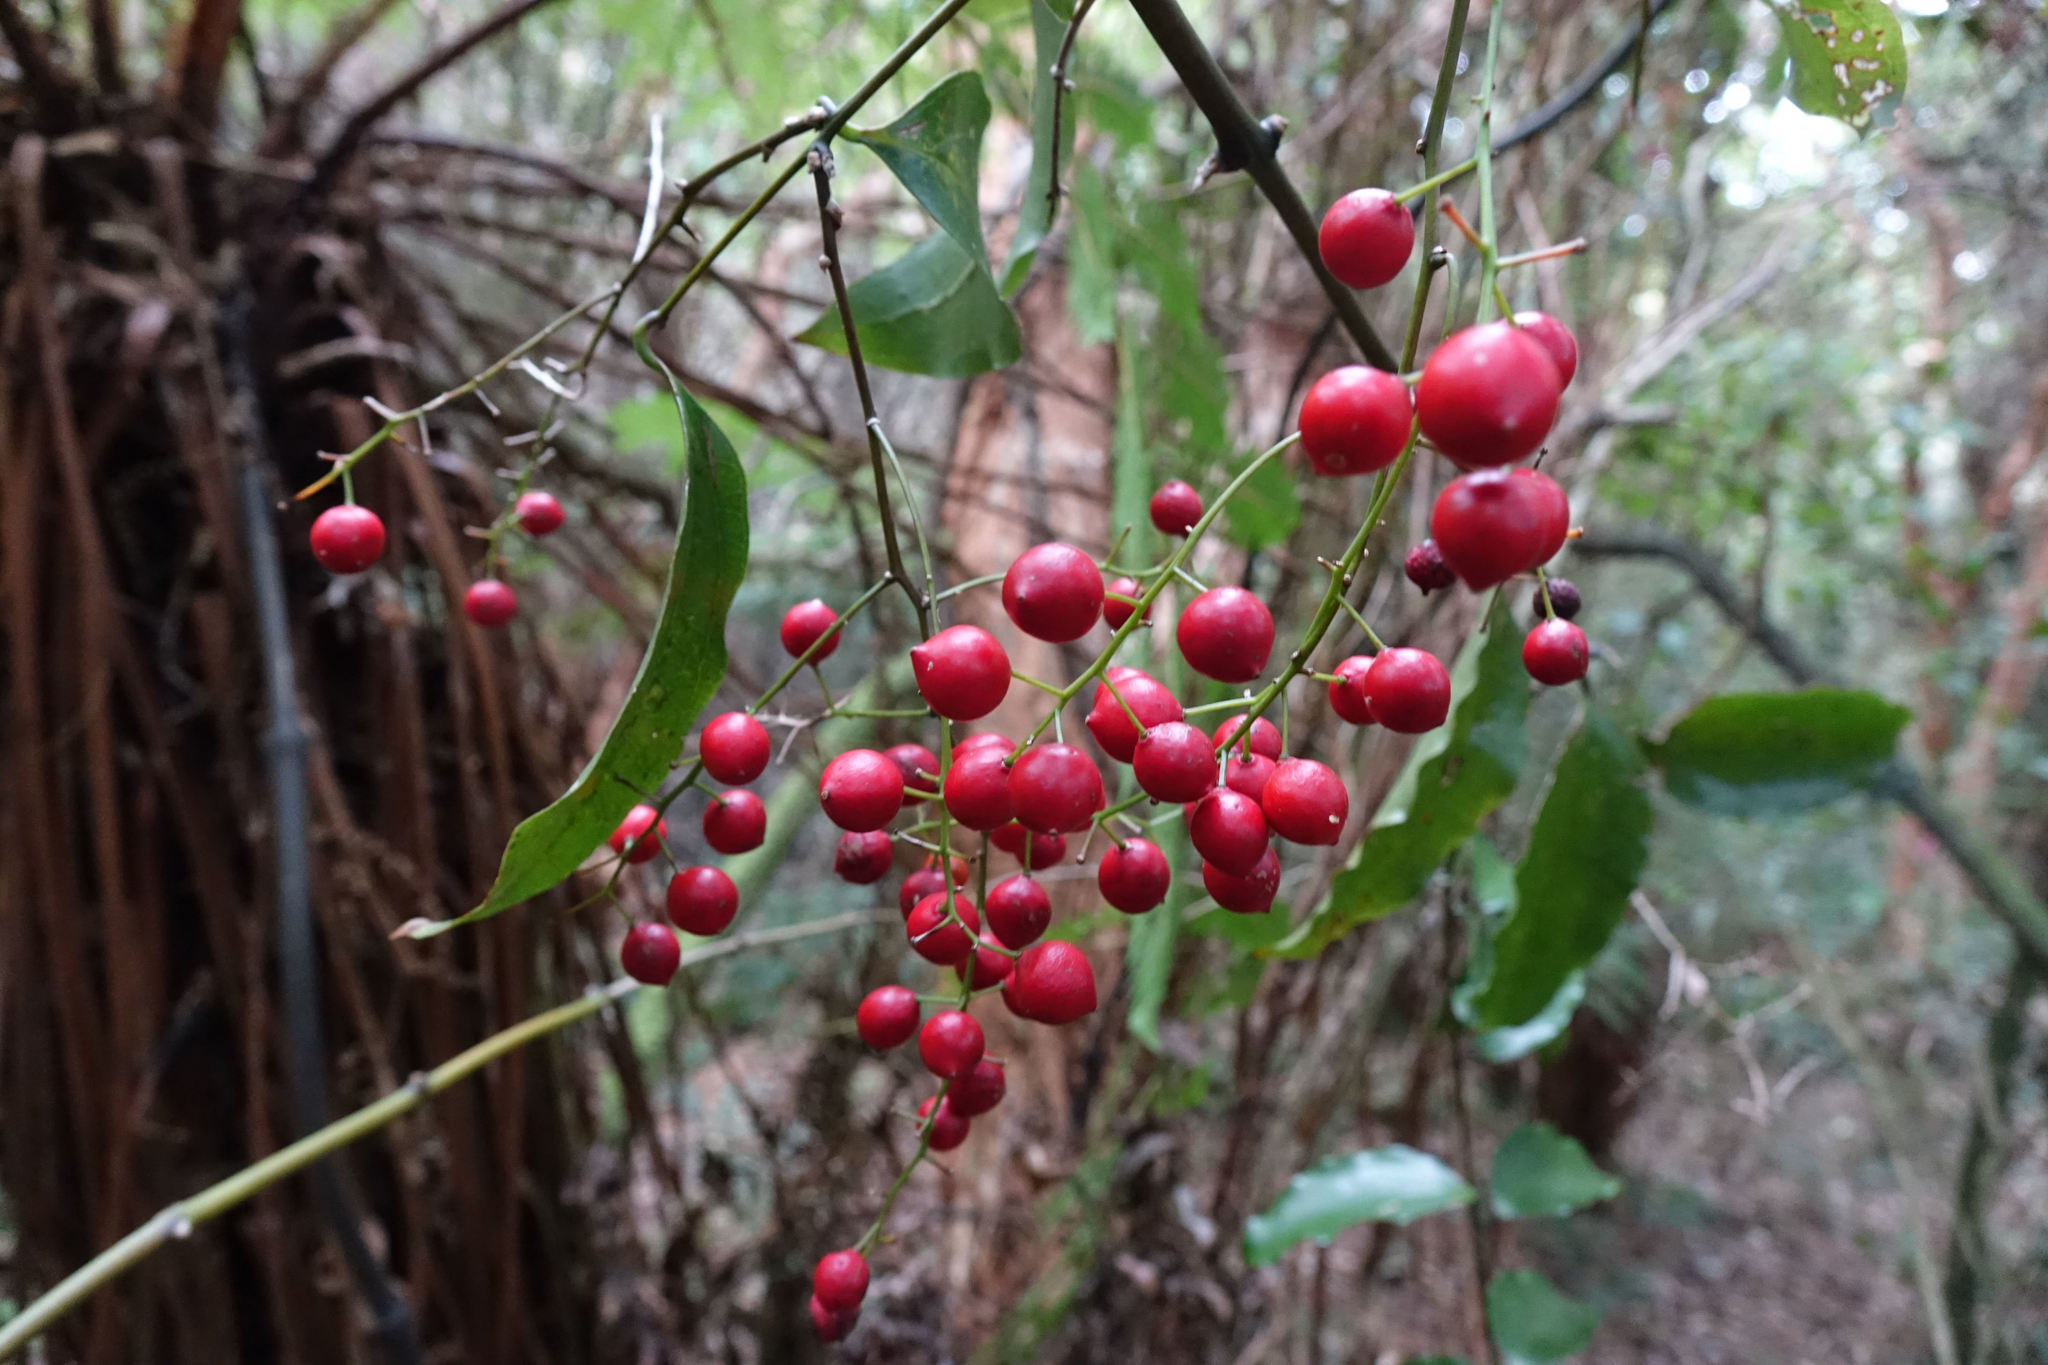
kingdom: Plantae
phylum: Tracheophyta
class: Liliopsida
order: Liliales
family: Ripogonaceae
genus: Ripogonum
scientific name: Ripogonum scandens
